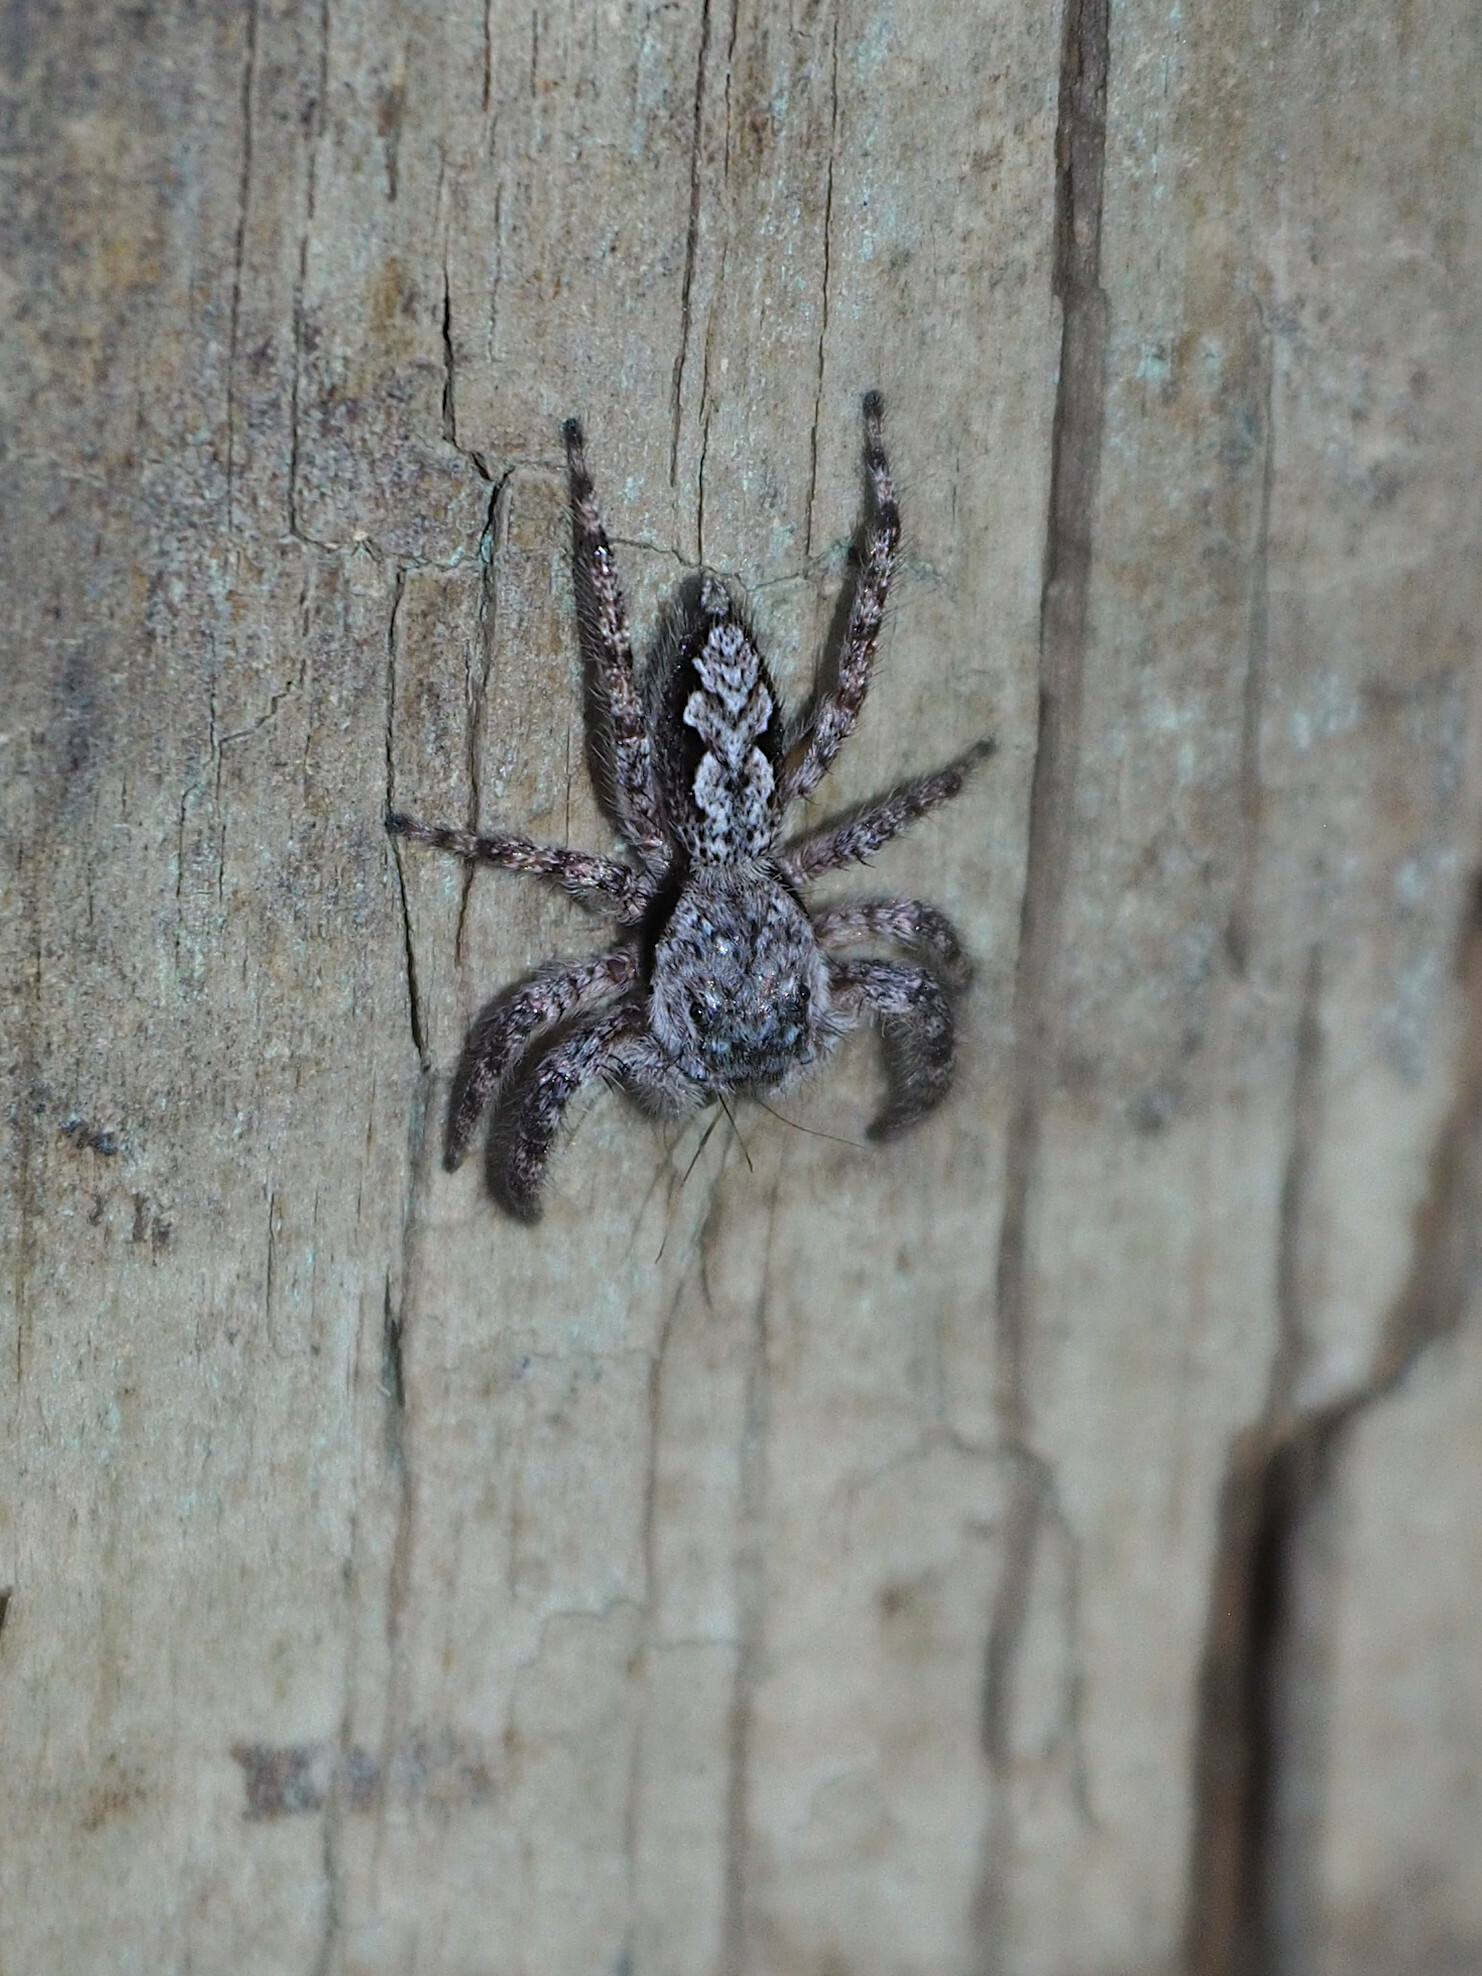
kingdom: Animalia
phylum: Arthropoda
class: Arachnida
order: Araneae
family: Salticidae
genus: Platycryptus
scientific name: Platycryptus undatus
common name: Tan jumping spider
